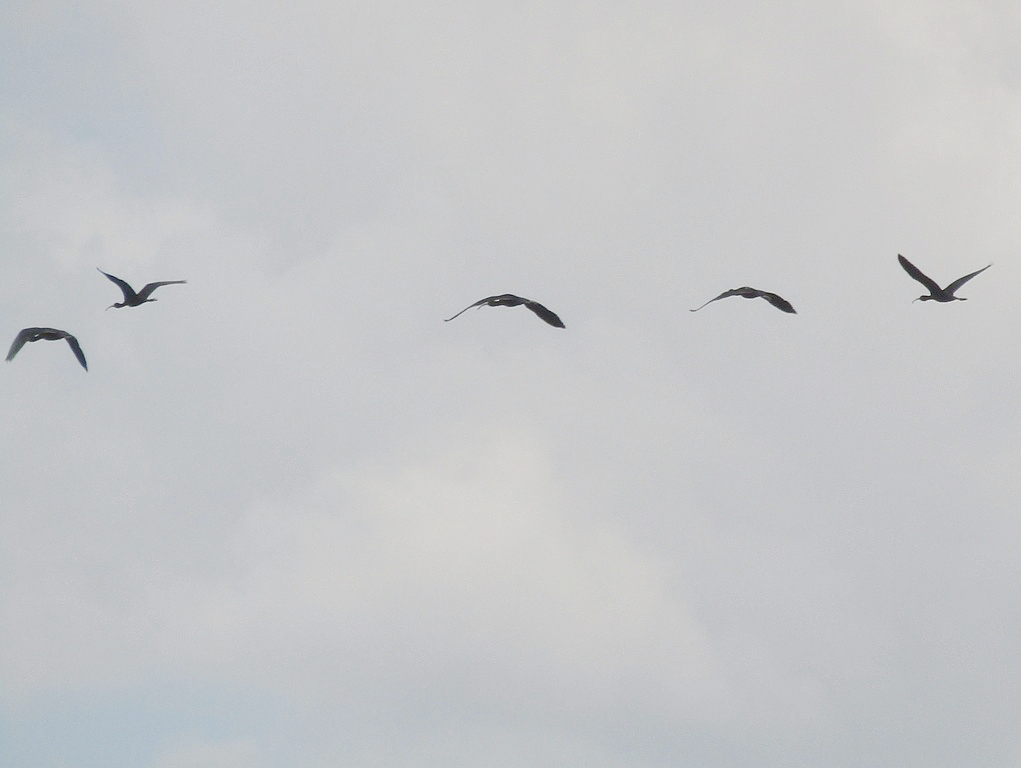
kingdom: Animalia
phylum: Chordata
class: Aves
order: Pelecaniformes
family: Threskiornithidae
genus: Plegadis
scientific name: Plegadis falcinellus
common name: Glossy ibis
